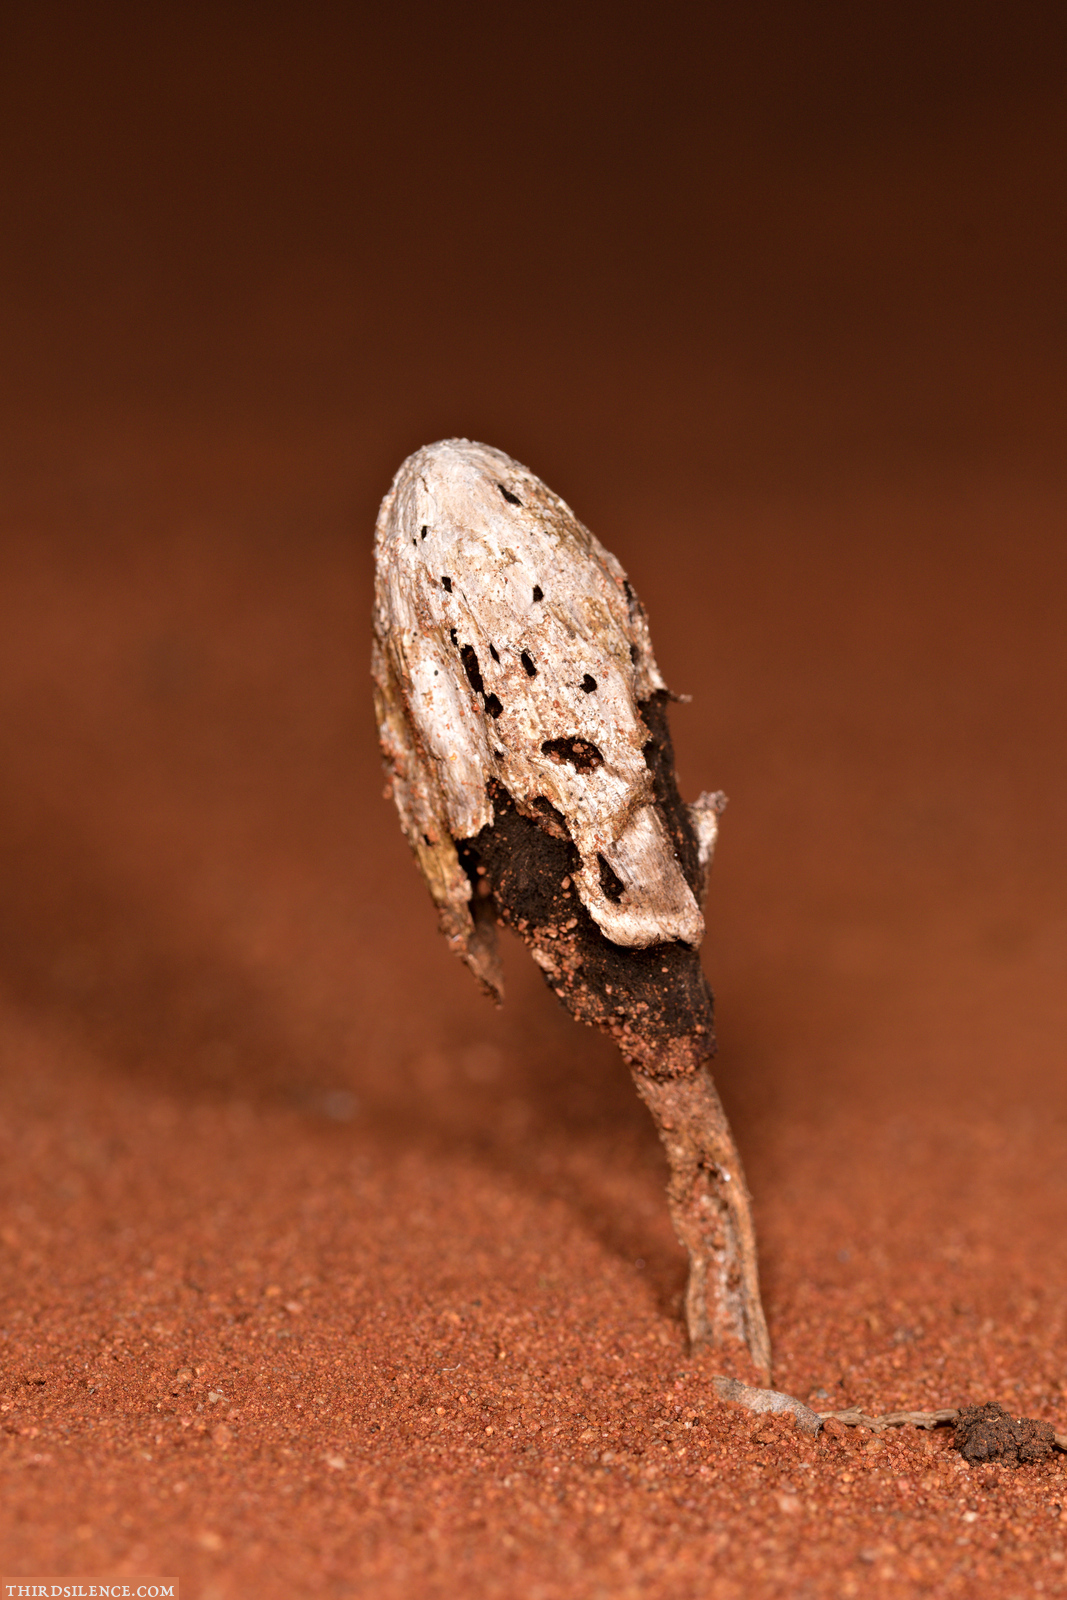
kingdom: Fungi
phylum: Basidiomycota
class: Agaricomycetes
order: Agaricales
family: Agaricaceae
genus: Podaxis
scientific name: Podaxis pistillaris
